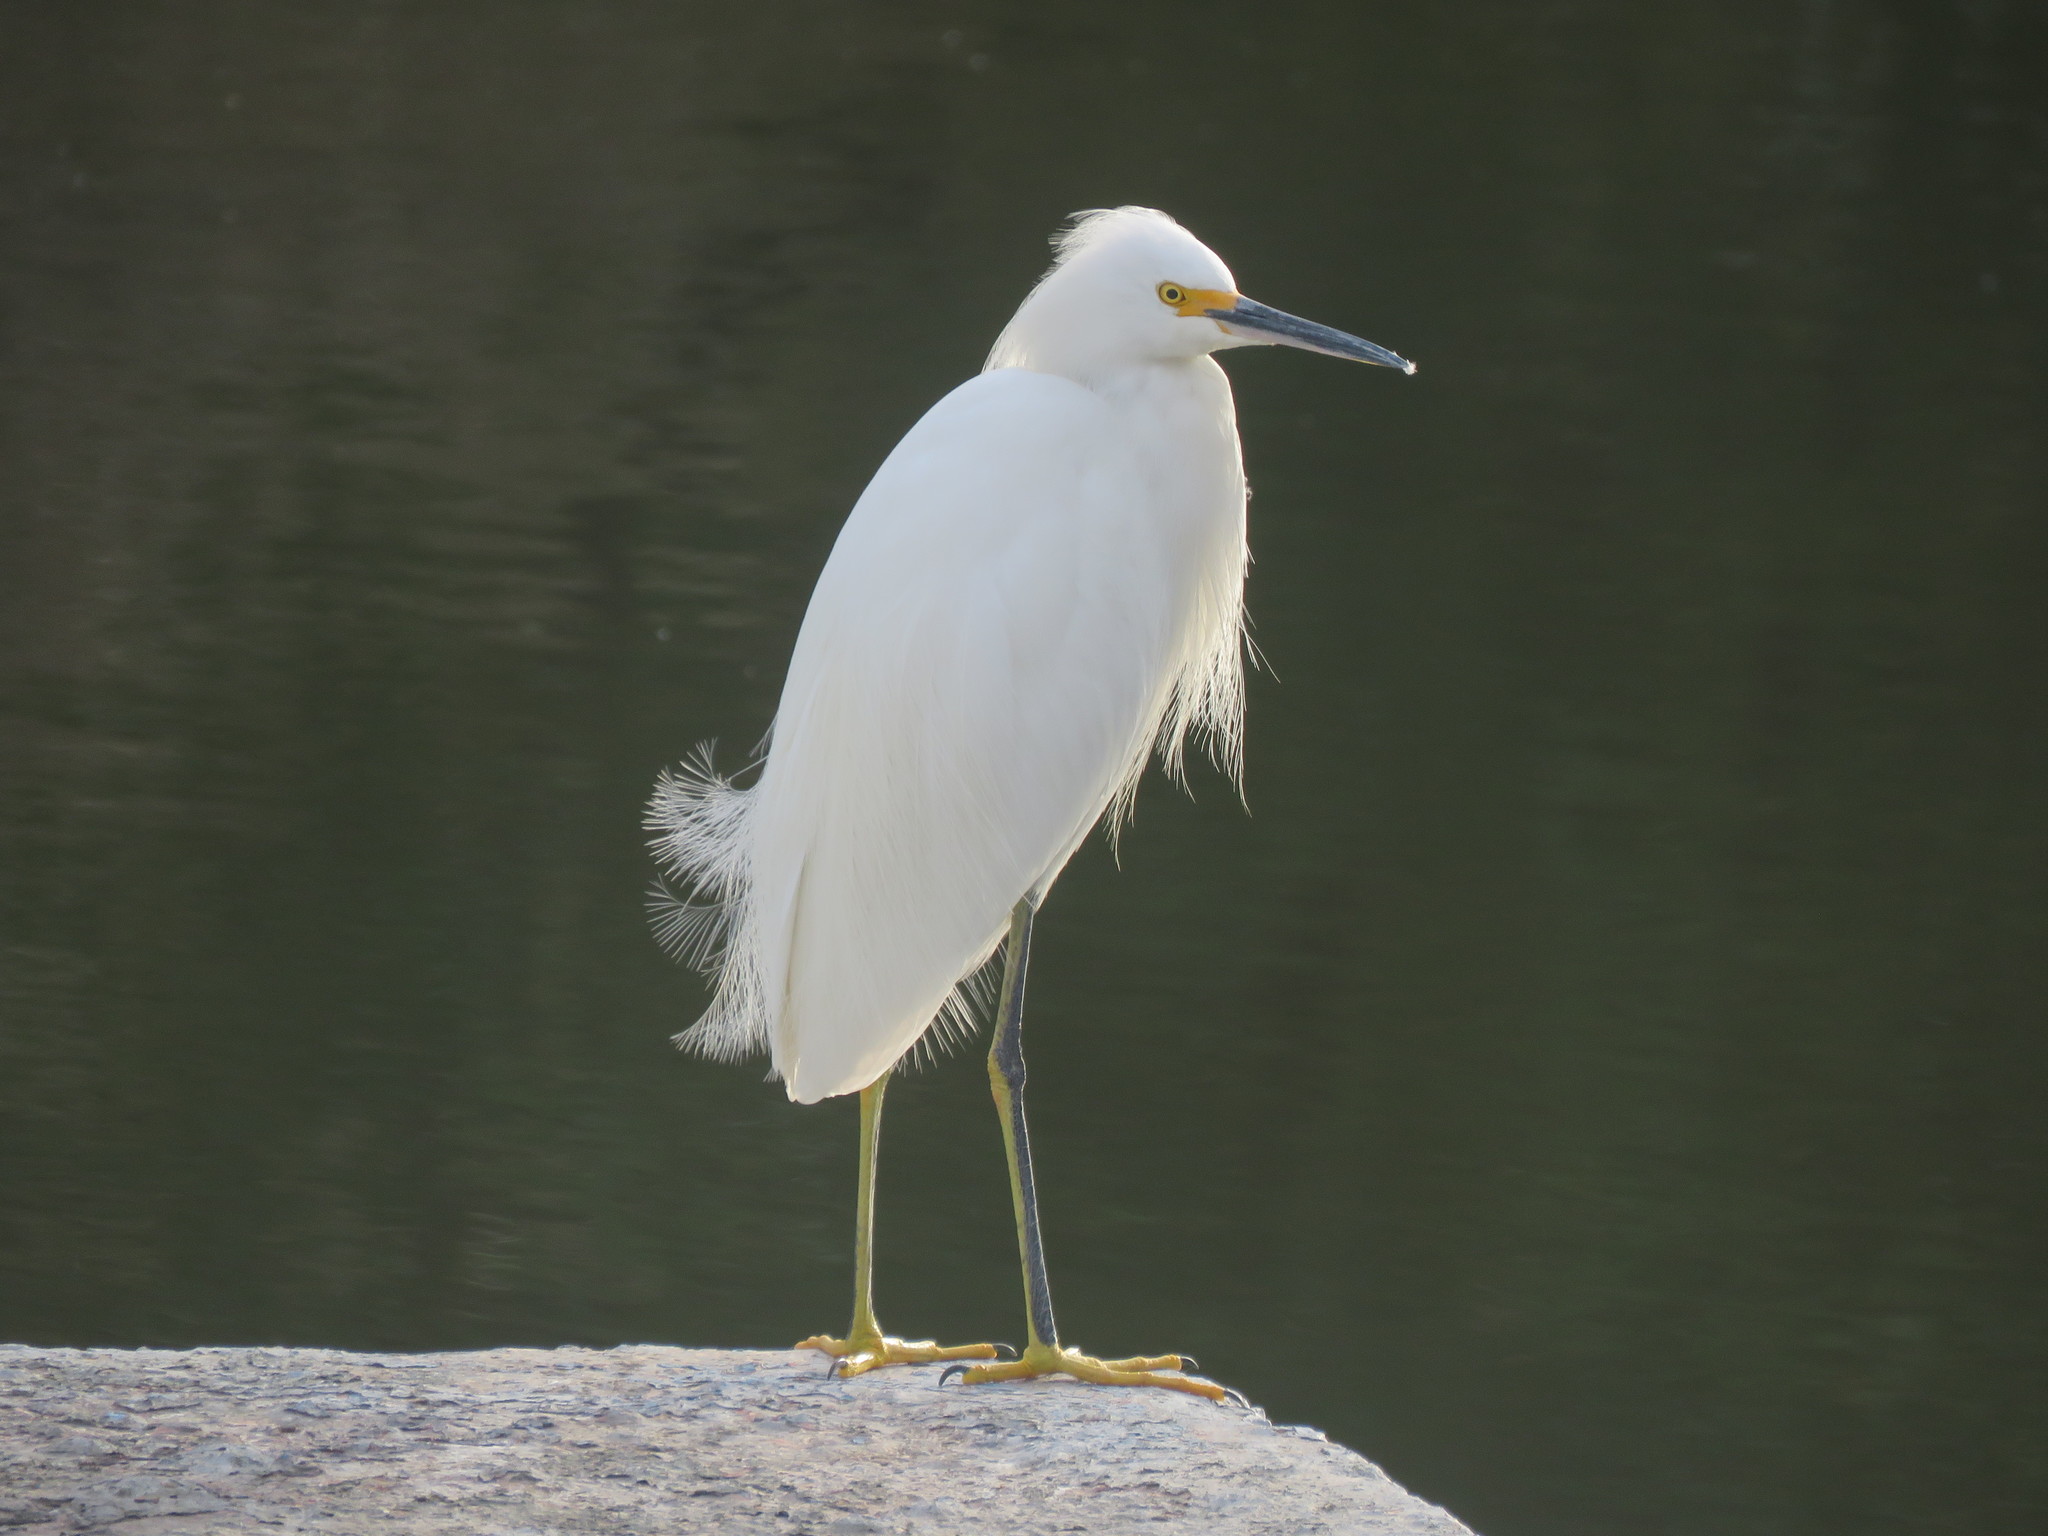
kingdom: Animalia
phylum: Chordata
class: Aves
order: Pelecaniformes
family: Ardeidae
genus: Egretta
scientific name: Egretta thula
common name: Snowy egret
